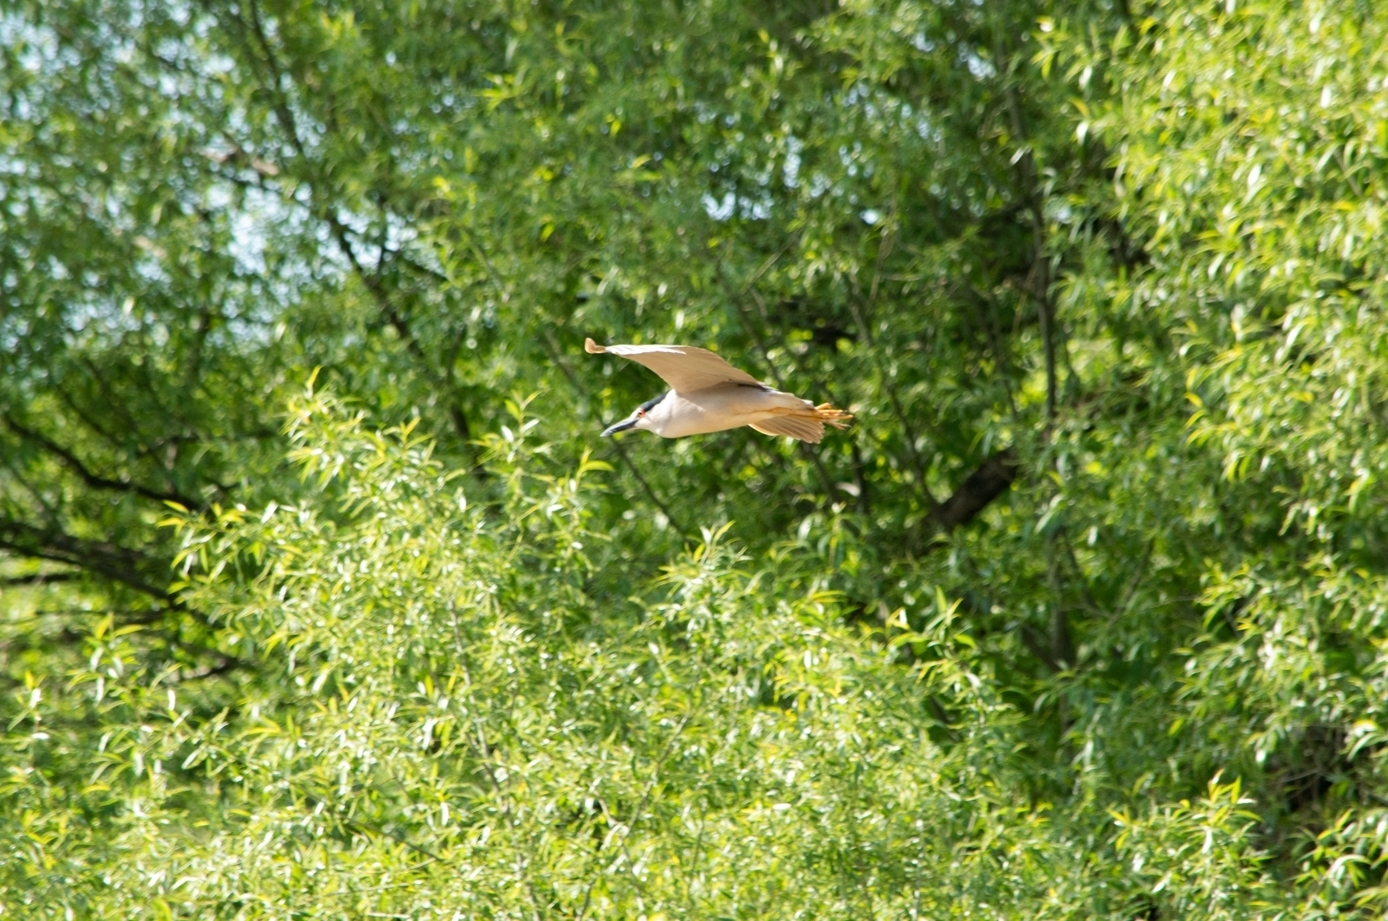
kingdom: Animalia
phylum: Chordata
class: Aves
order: Pelecaniformes
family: Ardeidae
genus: Nycticorax
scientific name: Nycticorax nycticorax
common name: Black-crowned night heron
